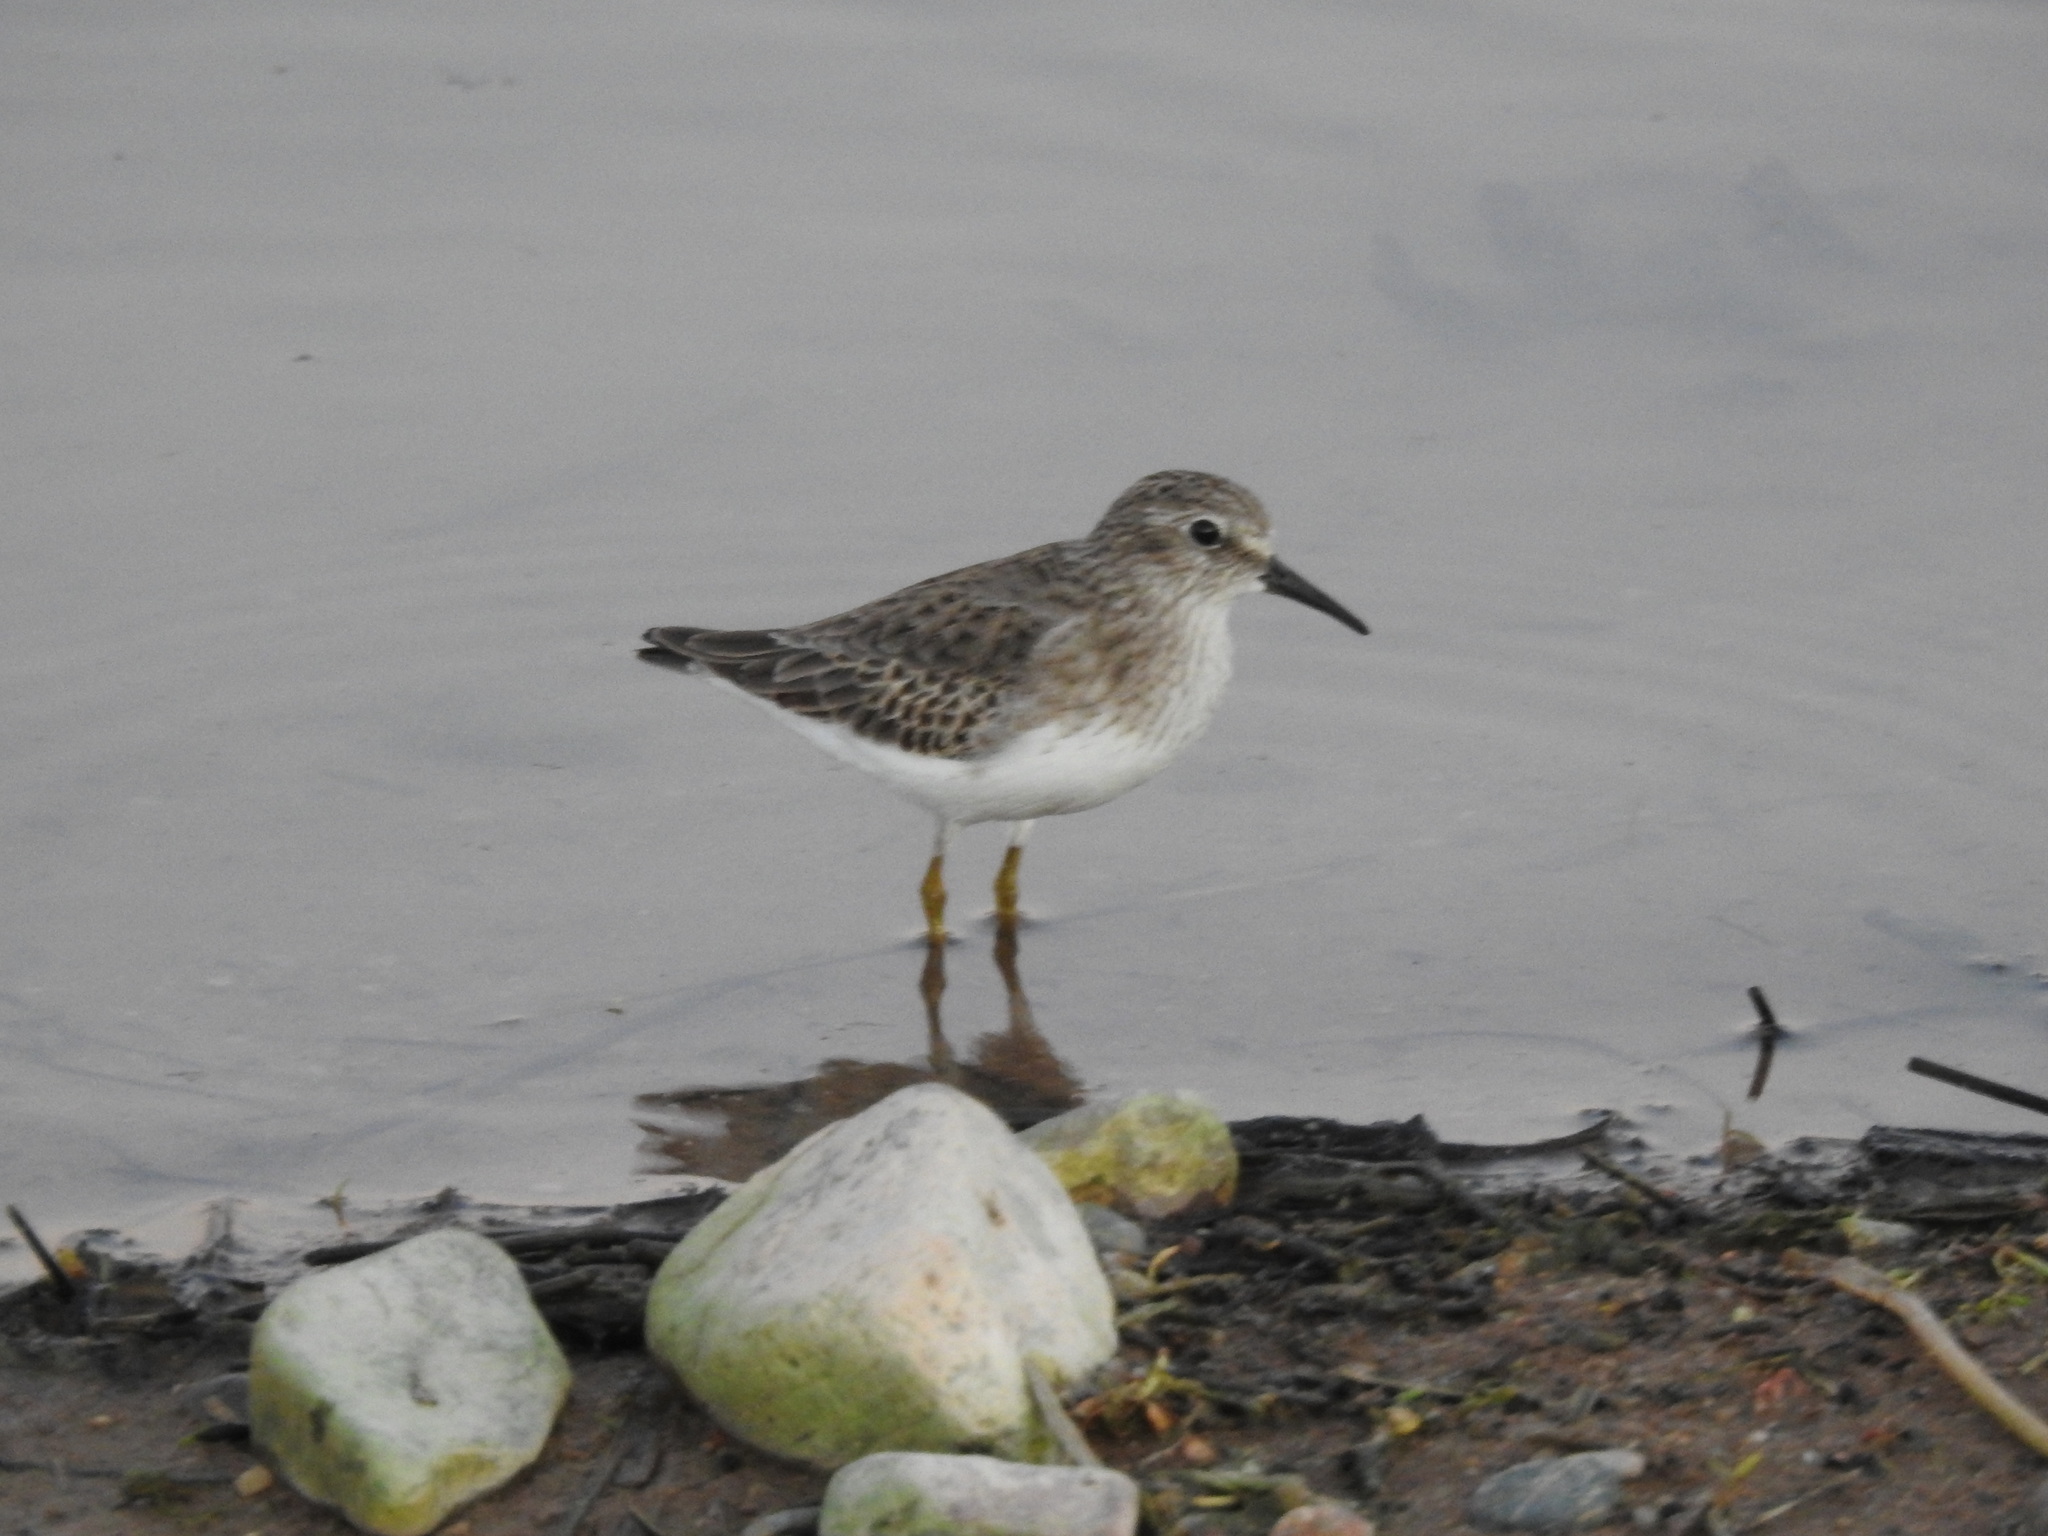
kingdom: Animalia
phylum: Chordata
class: Aves
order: Charadriiformes
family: Scolopacidae
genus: Calidris
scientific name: Calidris minutilla
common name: Least sandpiper
